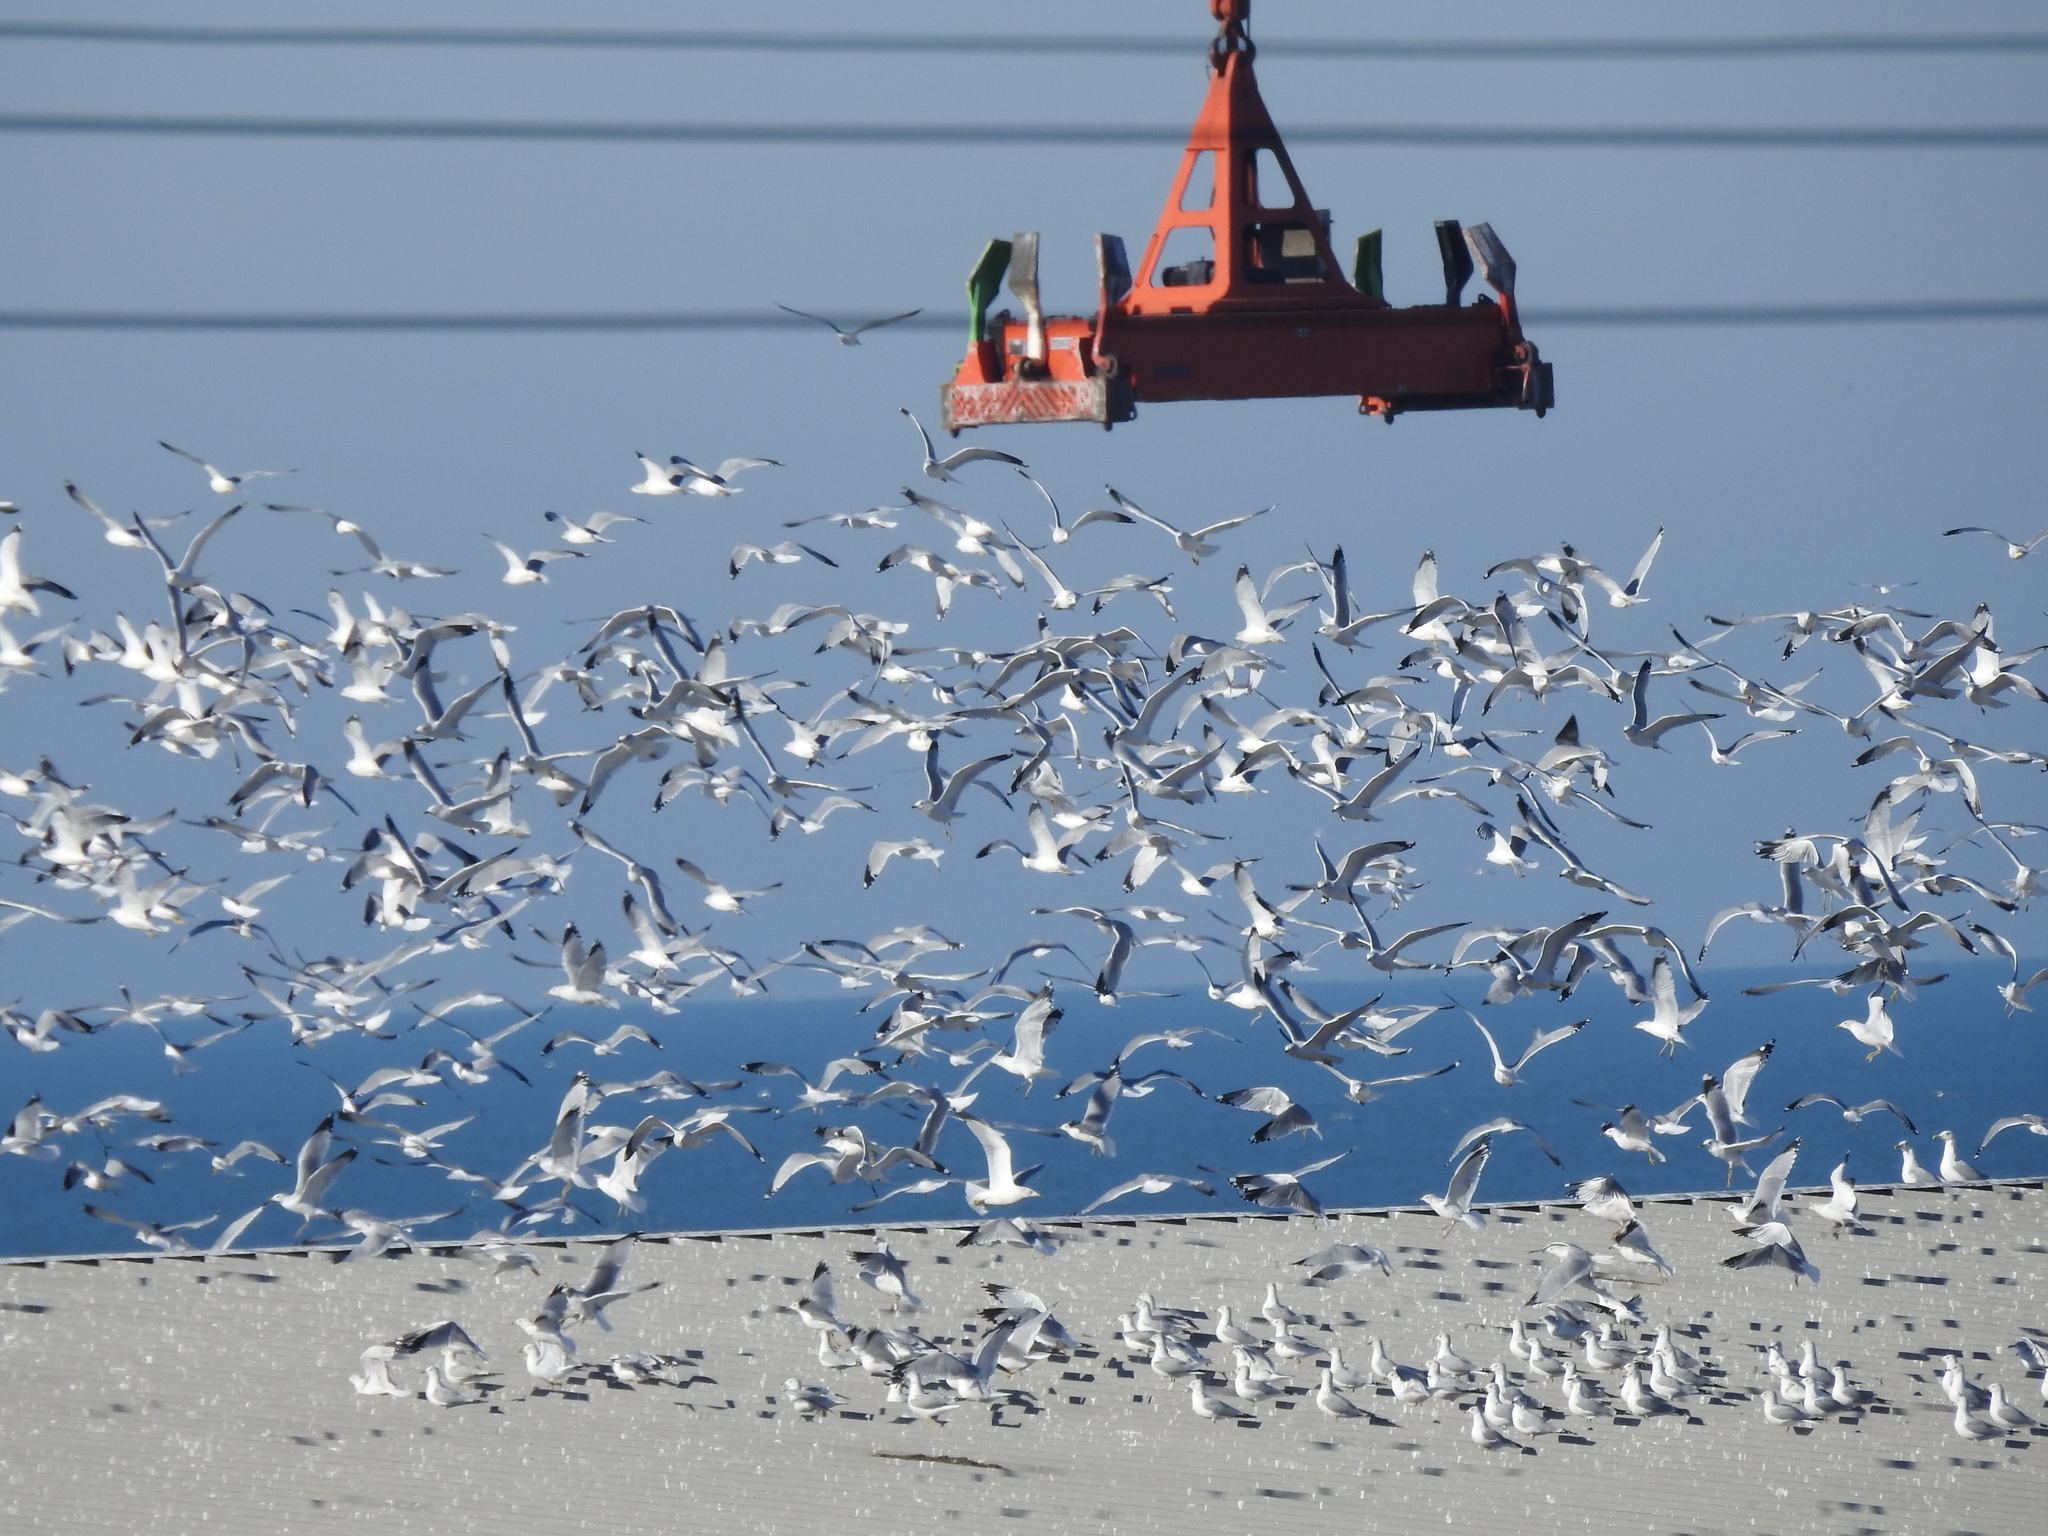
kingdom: Animalia
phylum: Chordata
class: Aves
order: Charadriiformes
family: Laridae
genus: Larus
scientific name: Larus delawarensis
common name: Ring-billed gull
